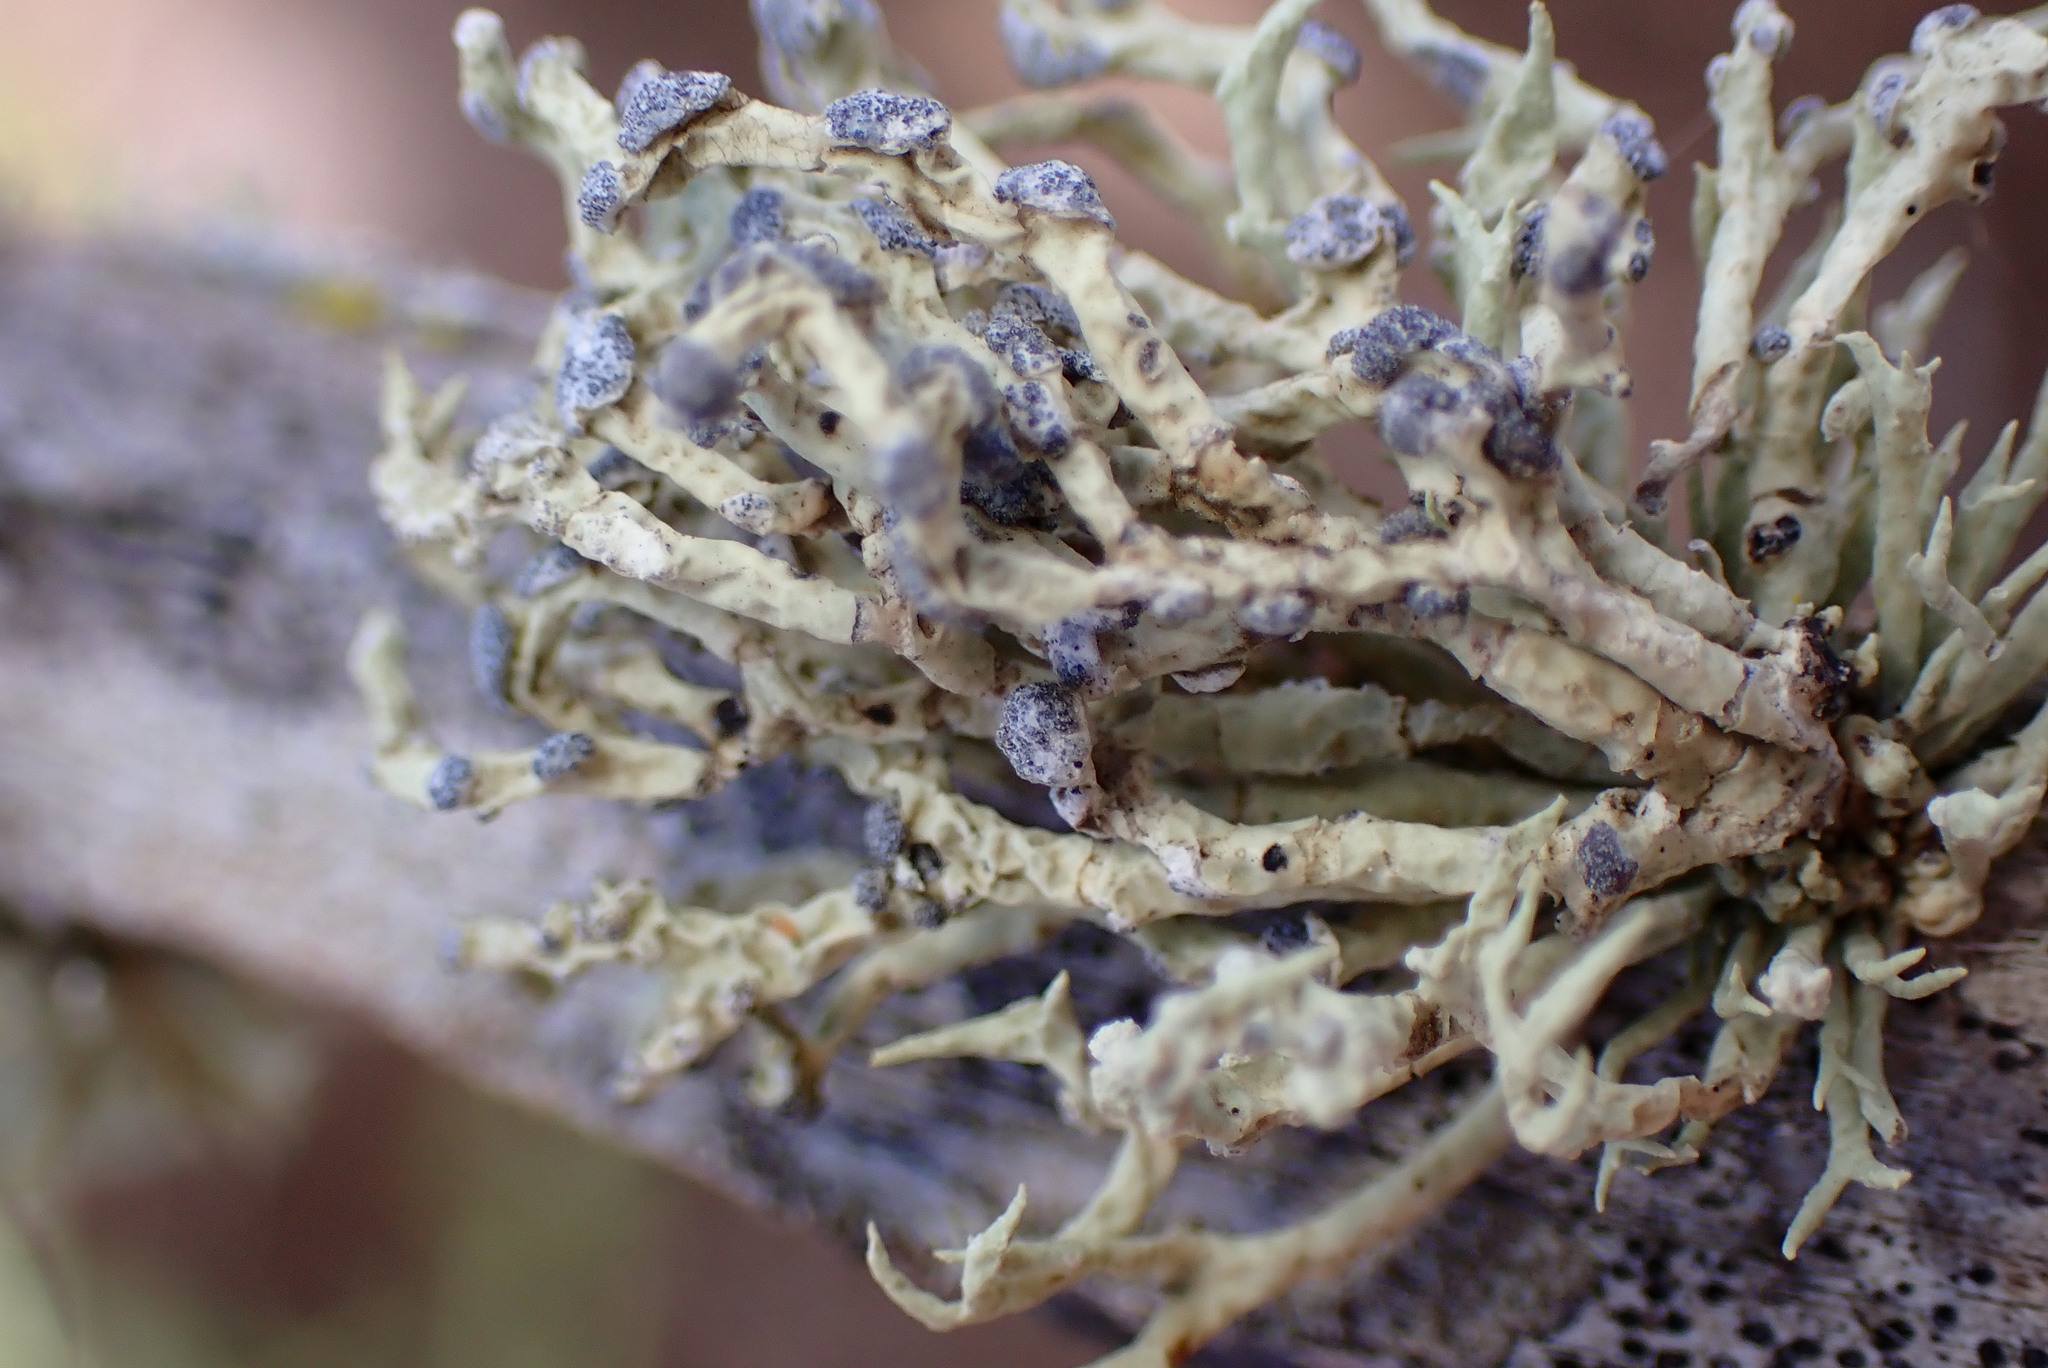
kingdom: Fungi
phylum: Ascomycota
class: Lecanoromycetes
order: Lecanorales
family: Ramalinaceae
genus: Niebla
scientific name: Niebla cephalota
